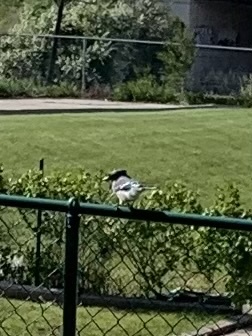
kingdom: Animalia
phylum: Chordata
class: Aves
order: Passeriformes
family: Corvidae
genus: Cyanocitta
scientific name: Cyanocitta cristata
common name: Blue jay
